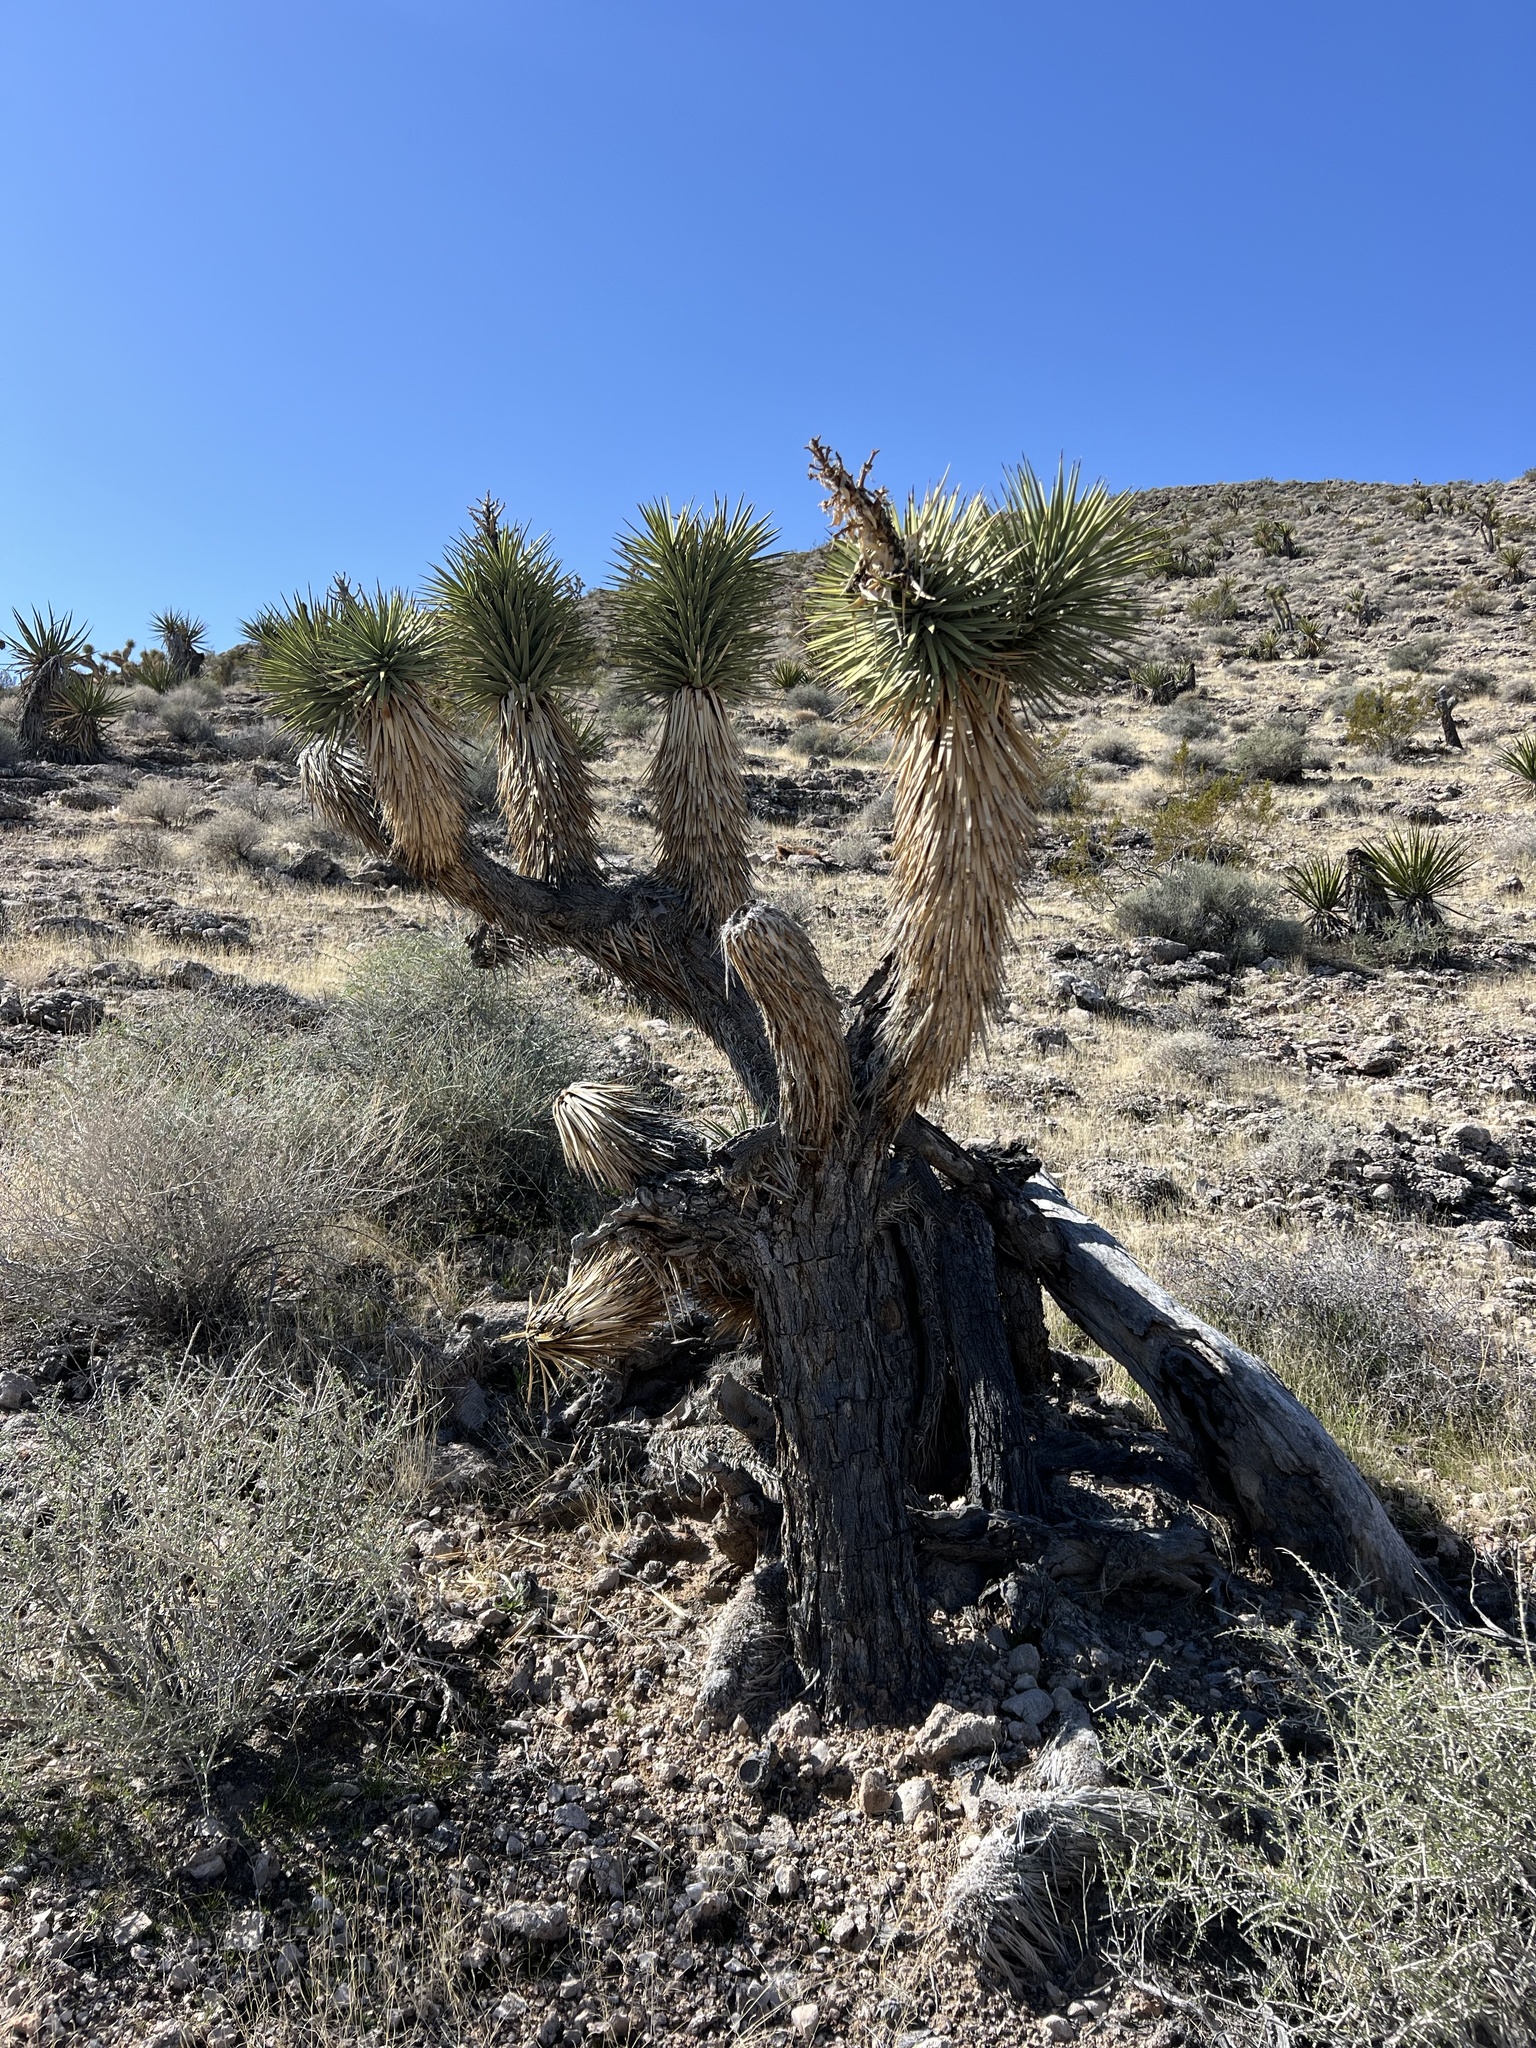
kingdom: Plantae
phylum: Tracheophyta
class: Liliopsida
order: Asparagales
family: Asparagaceae
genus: Yucca
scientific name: Yucca brevifolia
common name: Joshua tree
